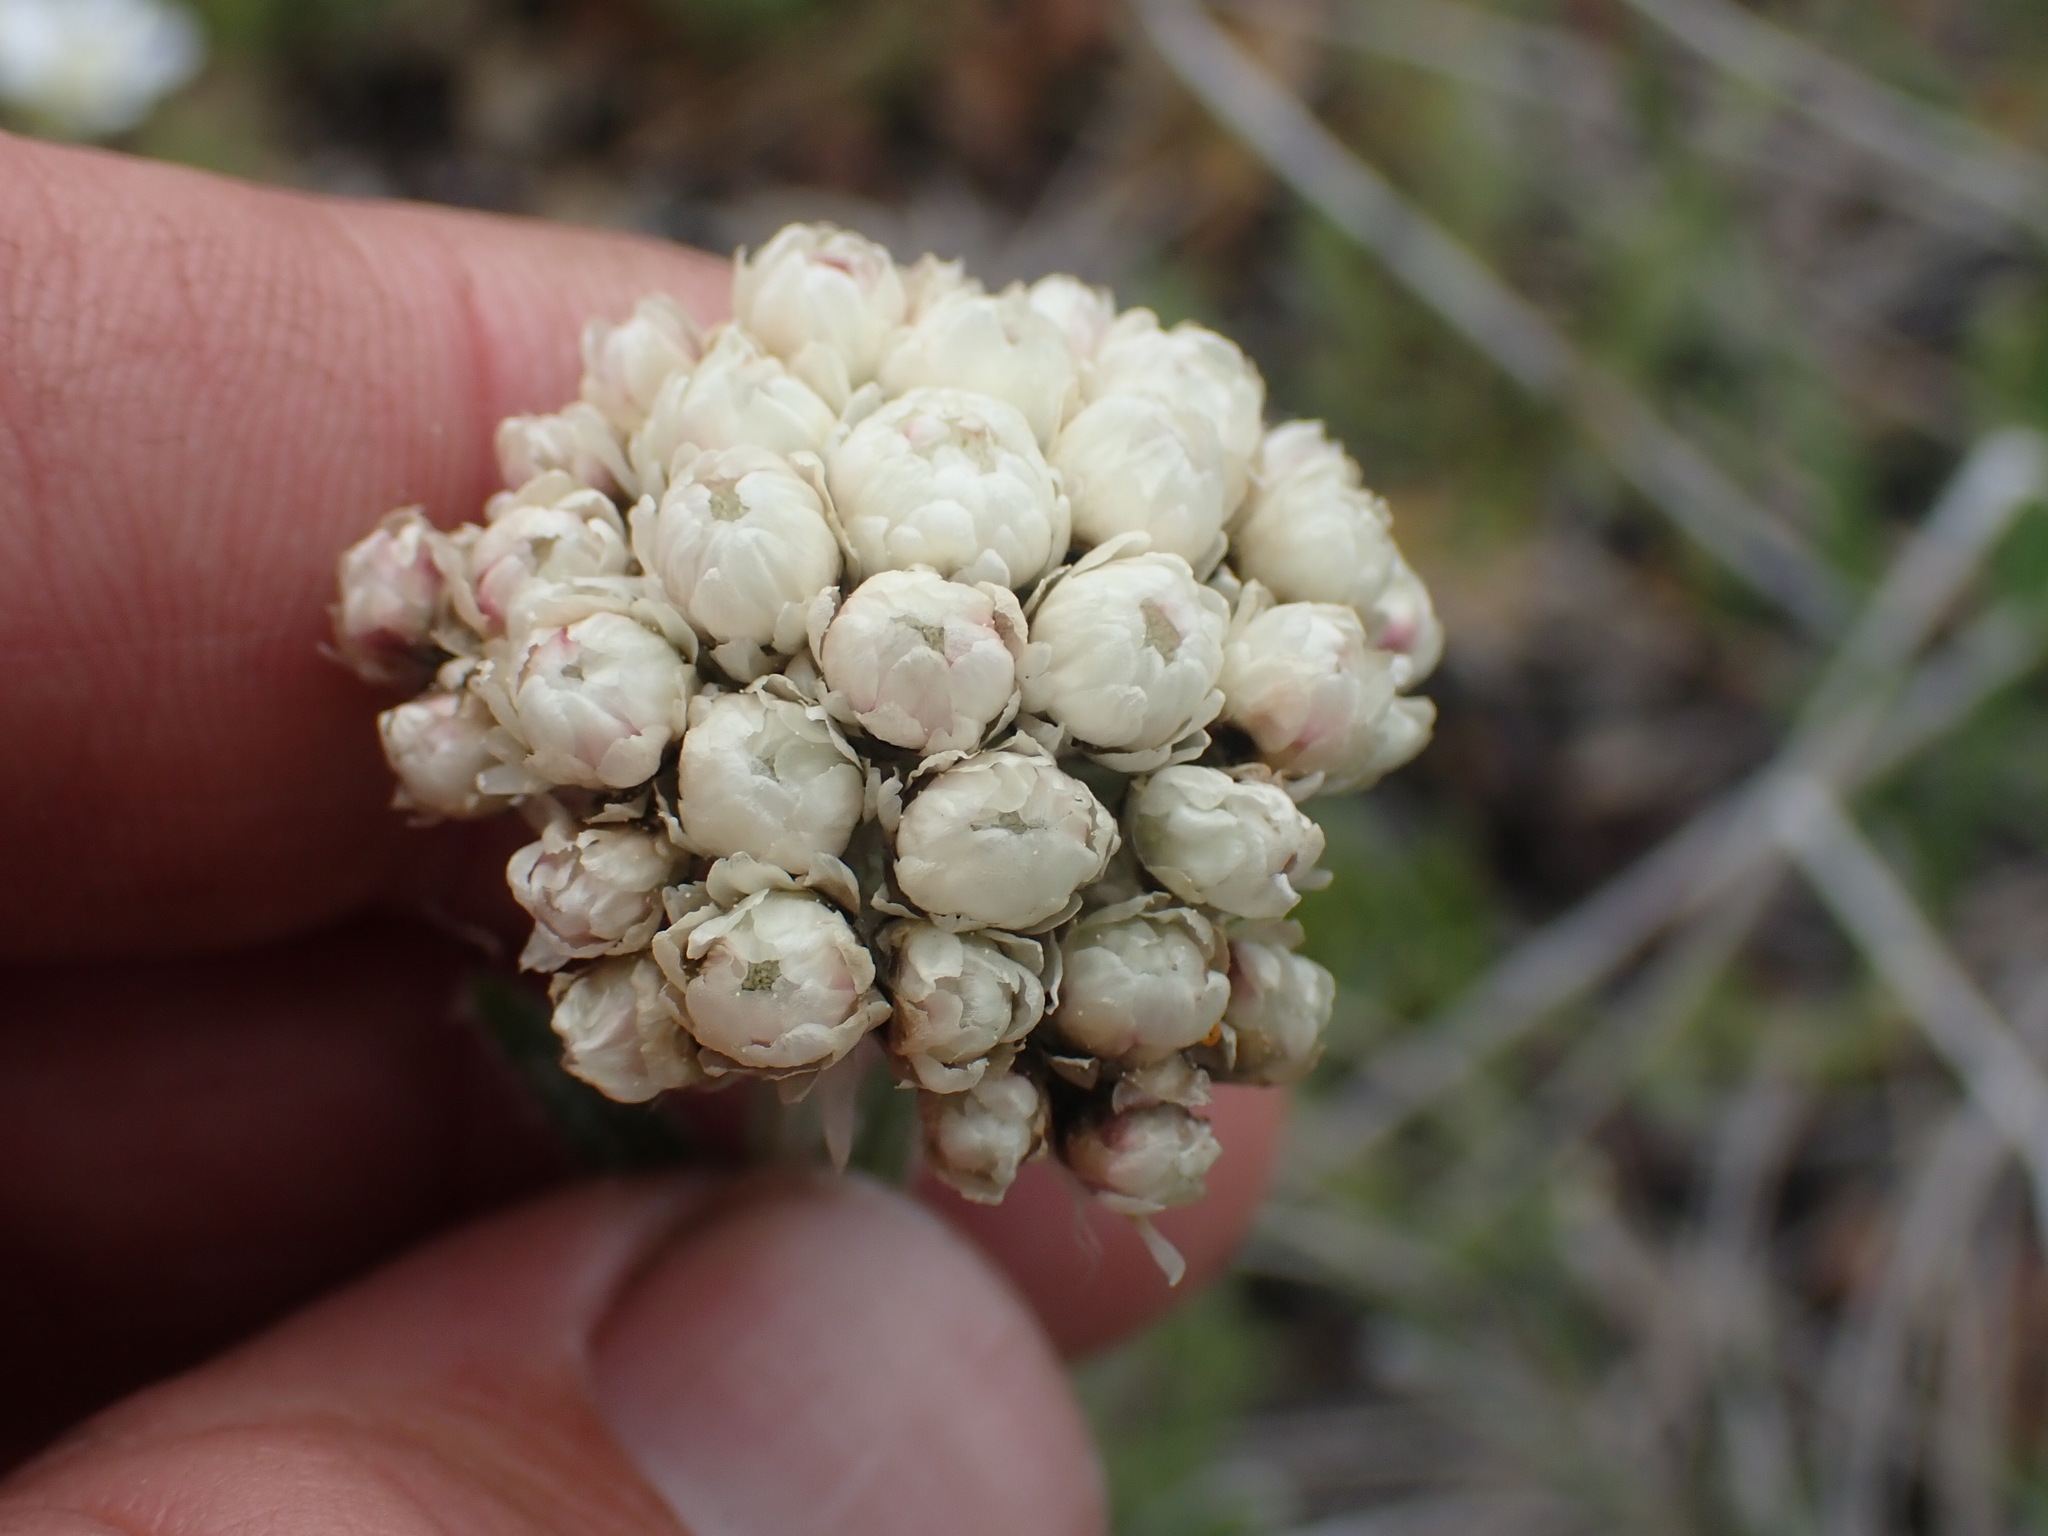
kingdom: Plantae
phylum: Tracheophyta
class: Magnoliopsida
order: Asterales
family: Asteraceae
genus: Antennaria
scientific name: Antennaria anaphaloides
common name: Tall pussytoes
